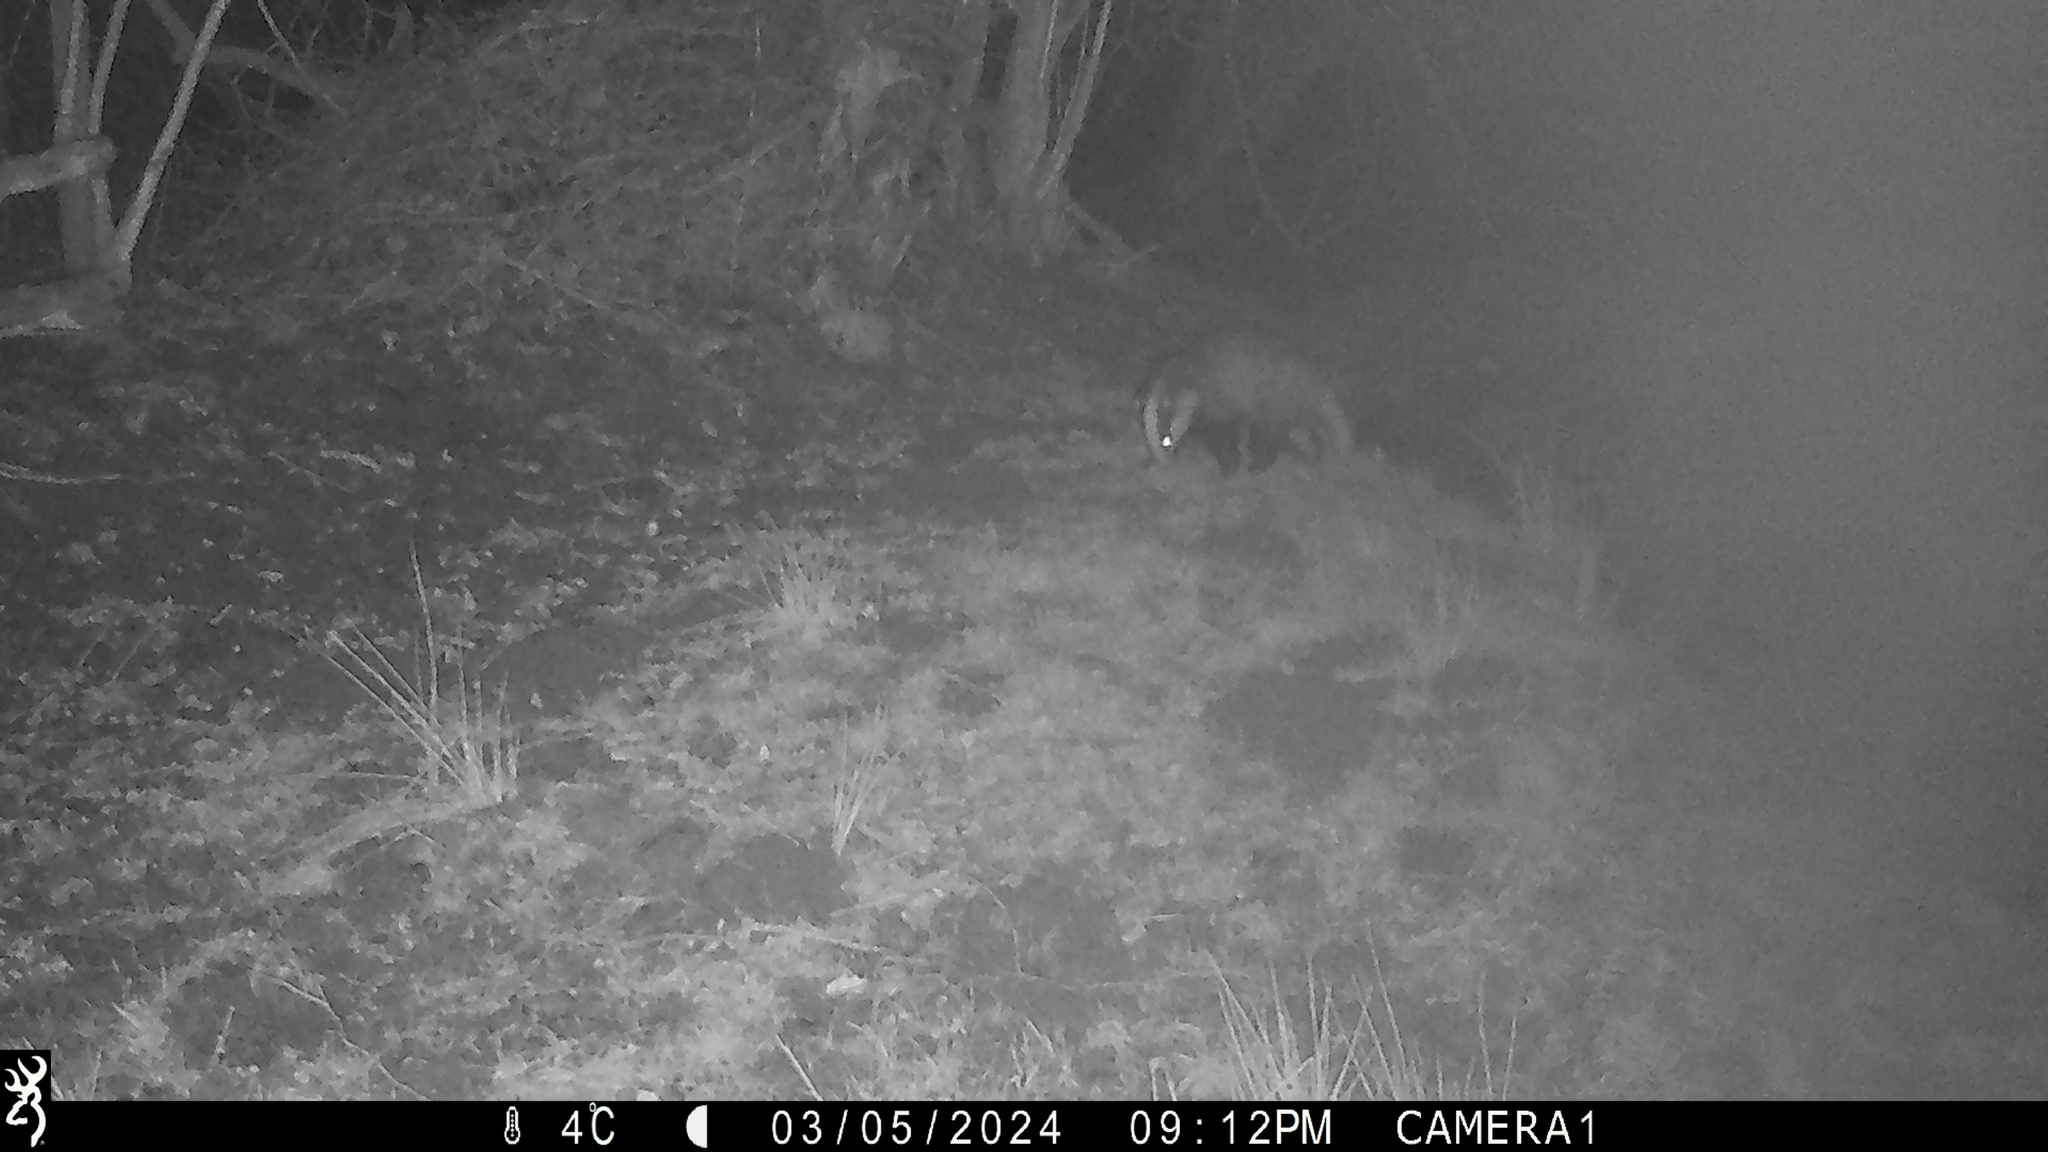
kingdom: Animalia
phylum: Chordata
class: Mammalia
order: Carnivora
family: Mustelidae
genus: Meles
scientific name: Meles meles
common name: Eurasian badger
